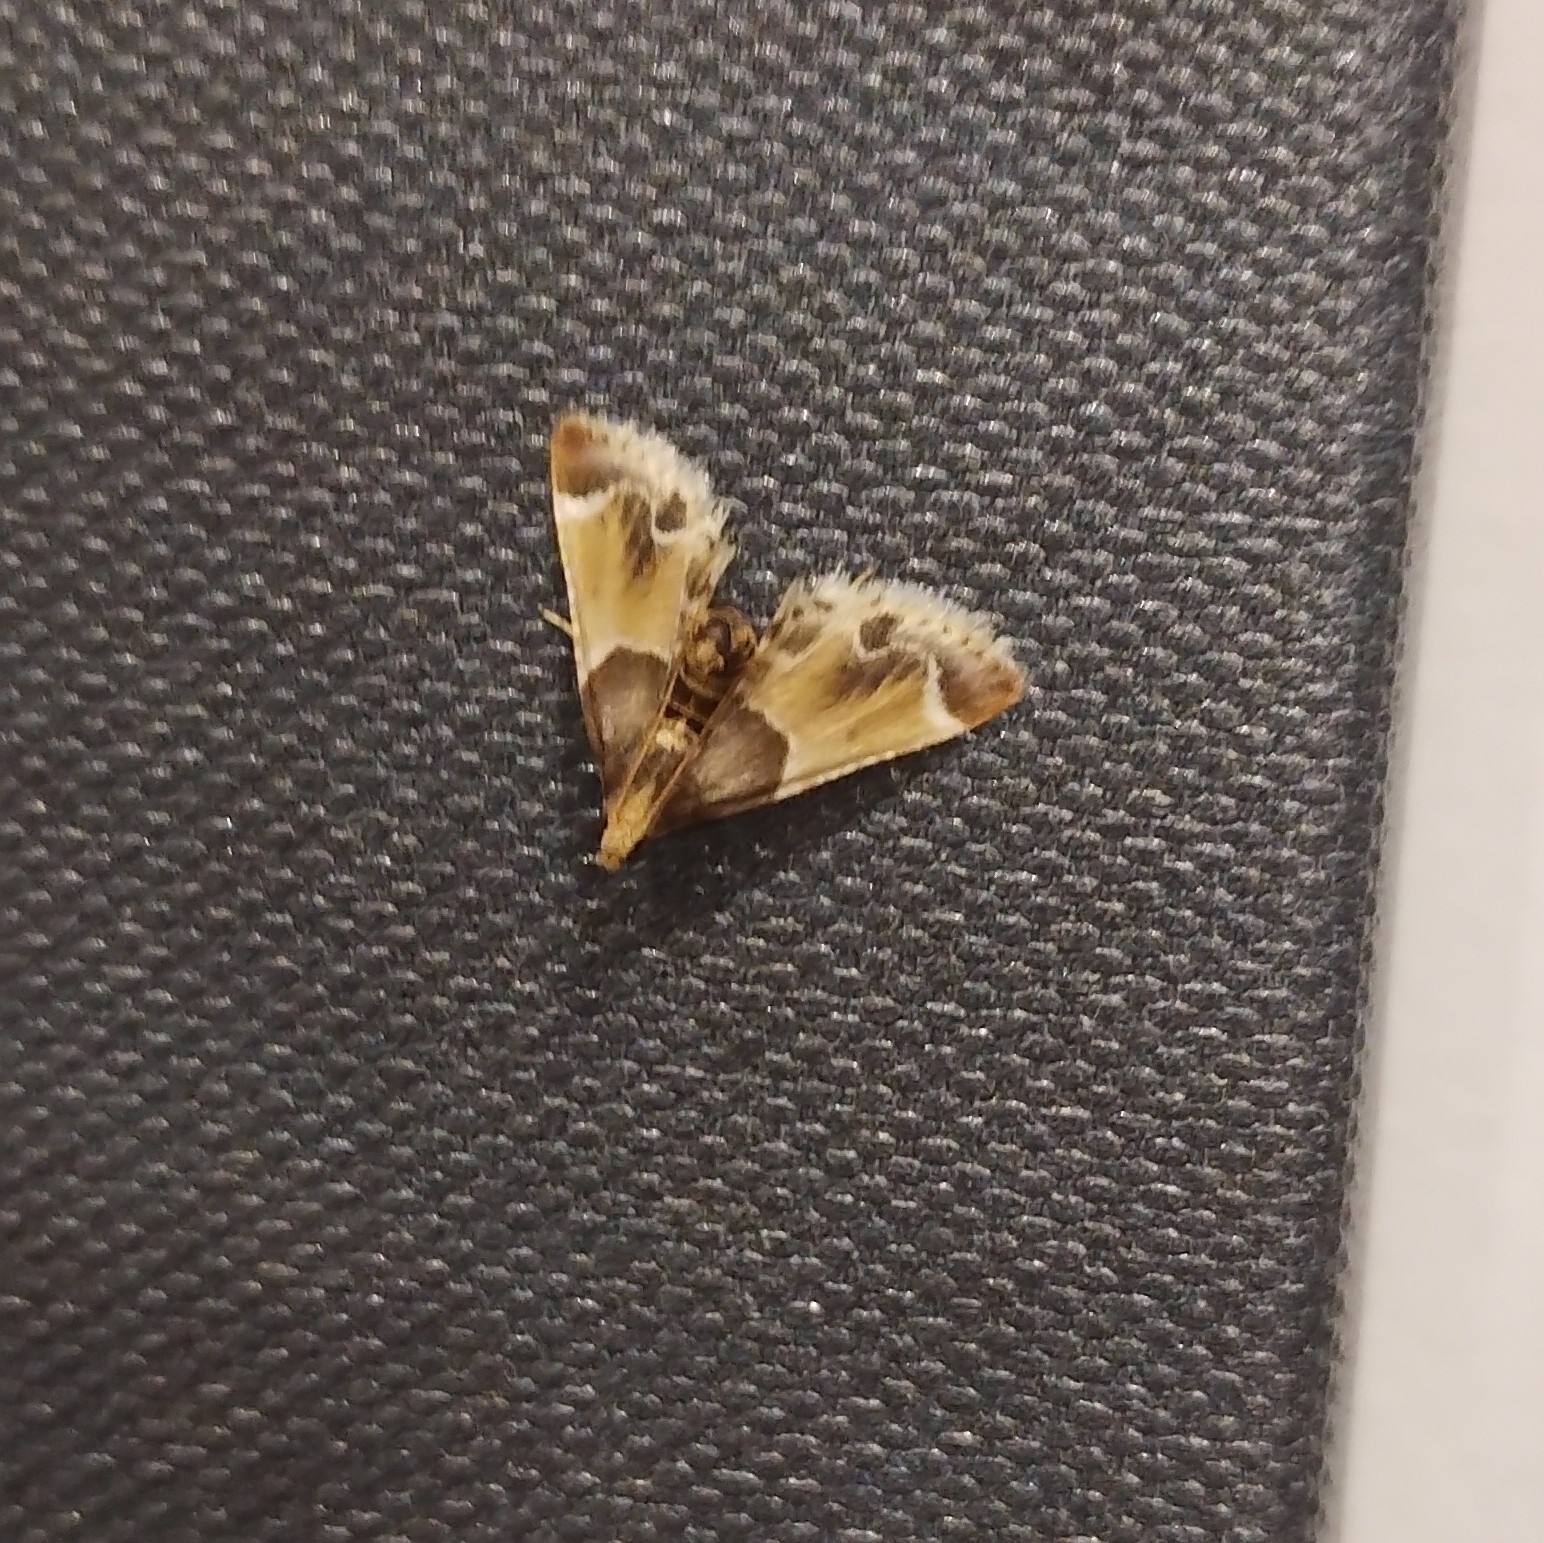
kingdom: Animalia
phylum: Arthropoda
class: Insecta
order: Lepidoptera
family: Pyralidae
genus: Pyralis
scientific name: Pyralis farinalis
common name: Meal moth
